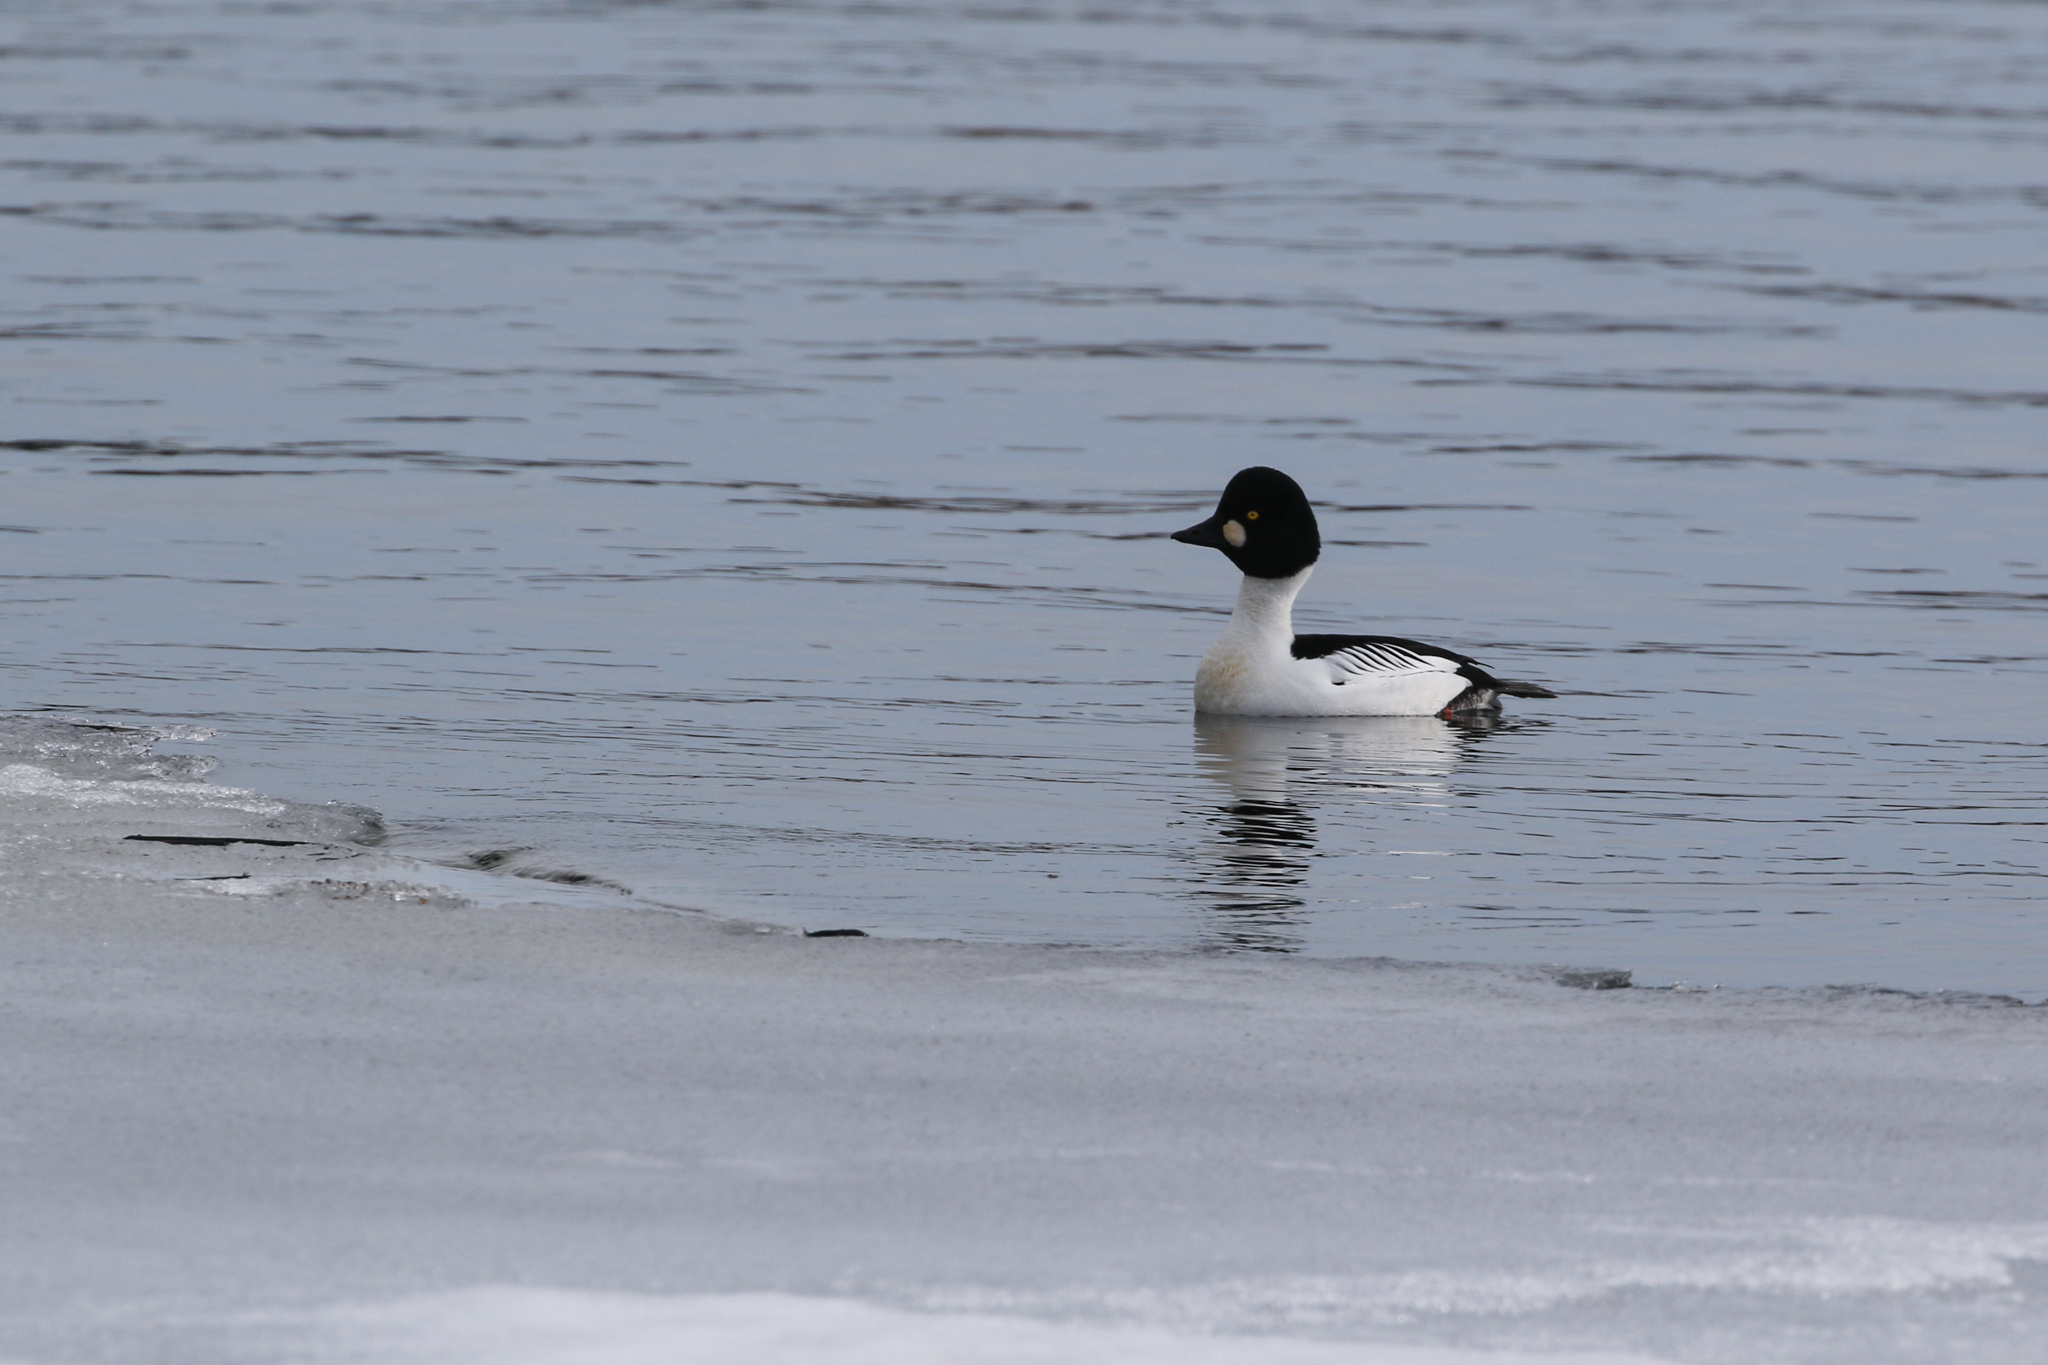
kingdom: Animalia
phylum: Chordata
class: Aves
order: Anseriformes
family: Anatidae
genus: Bucephala
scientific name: Bucephala clangula
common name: Common goldeneye
